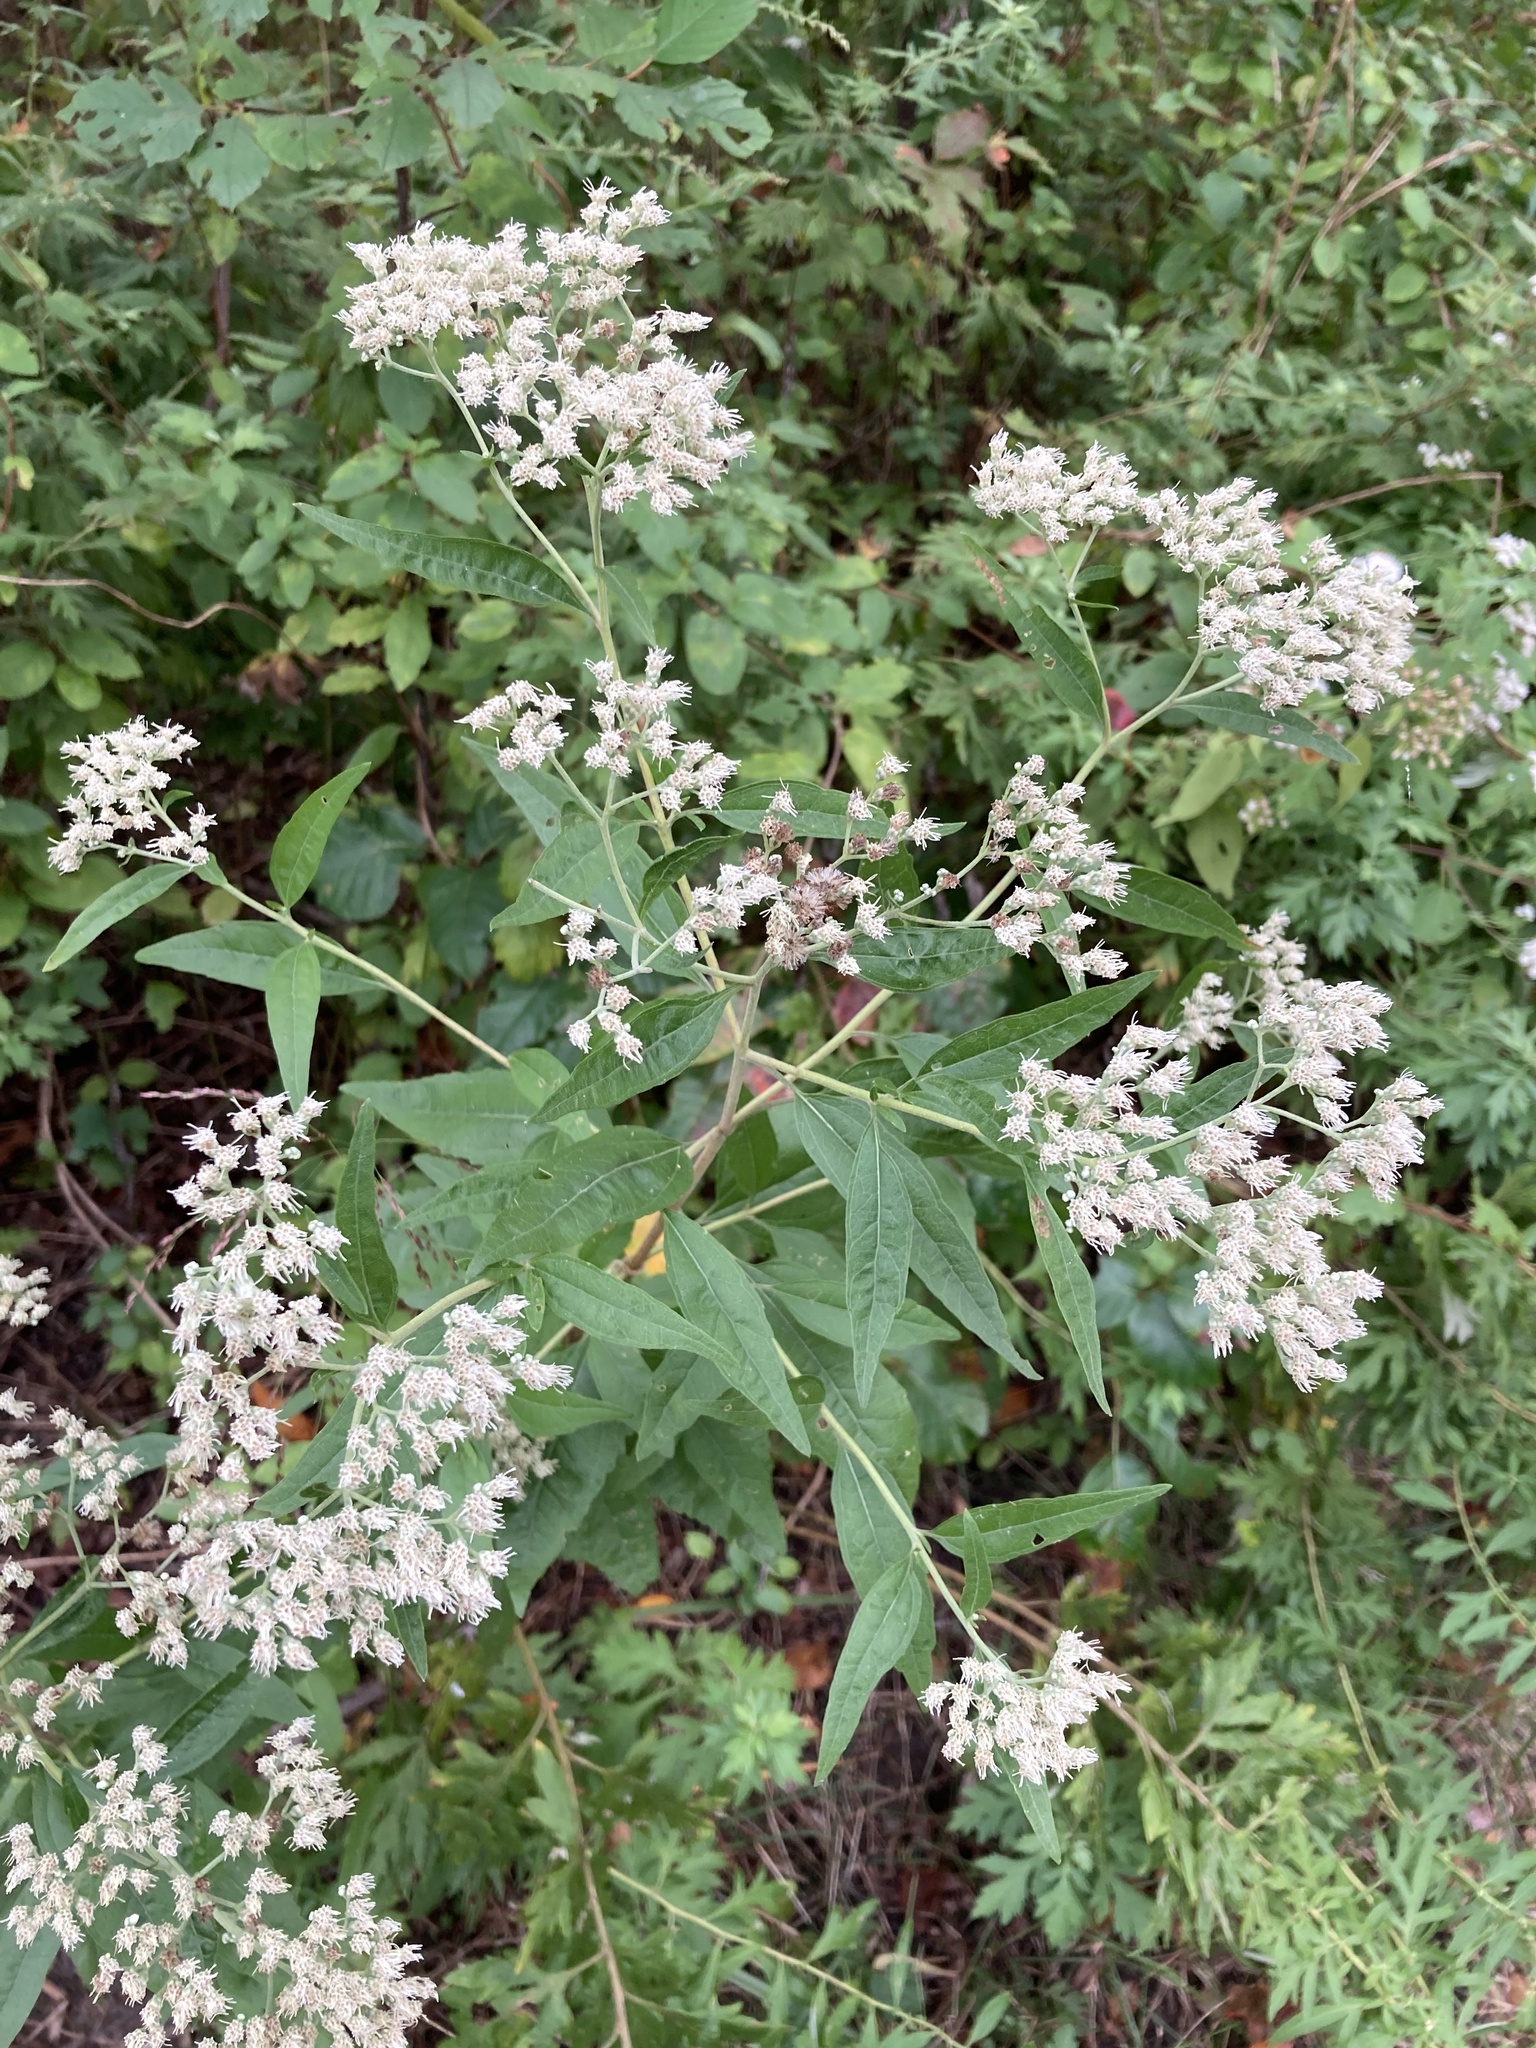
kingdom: Plantae
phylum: Tracheophyta
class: Magnoliopsida
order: Asterales
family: Asteraceae
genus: Eupatorium
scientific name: Eupatorium serotinum
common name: Late boneset
